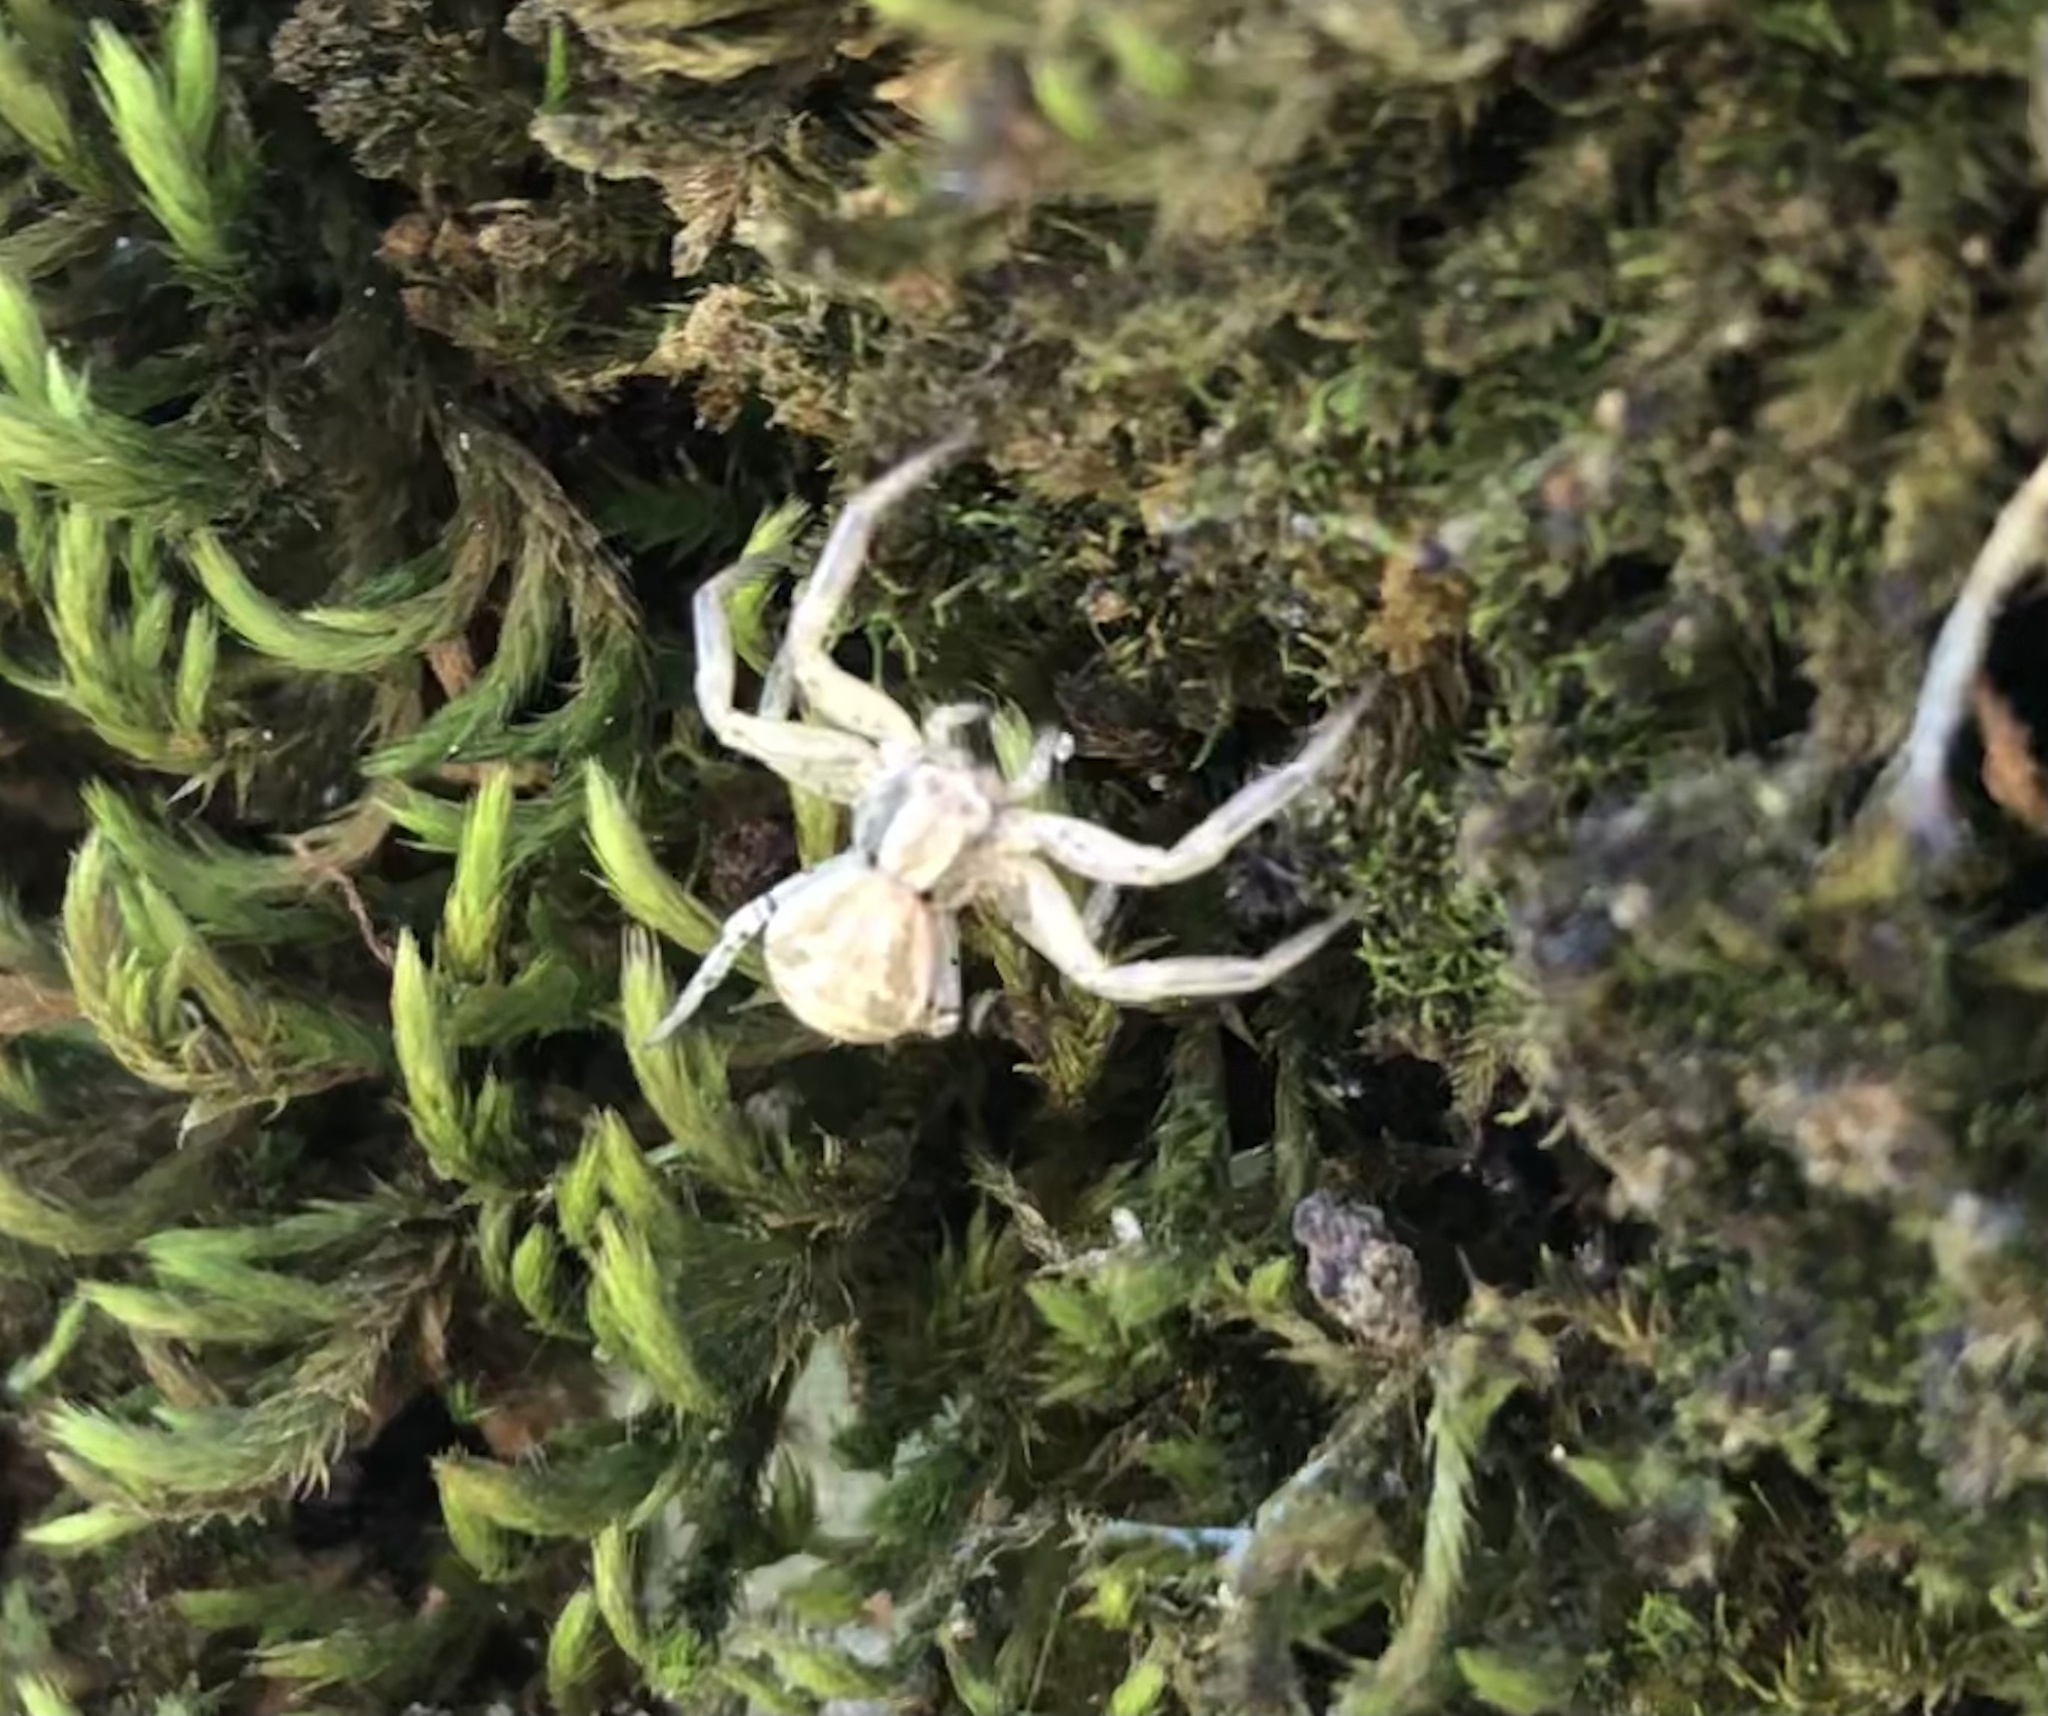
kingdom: Animalia
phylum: Arthropoda
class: Arachnida
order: Araneae
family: Thomisidae
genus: Xysticus
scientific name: Xysticus
